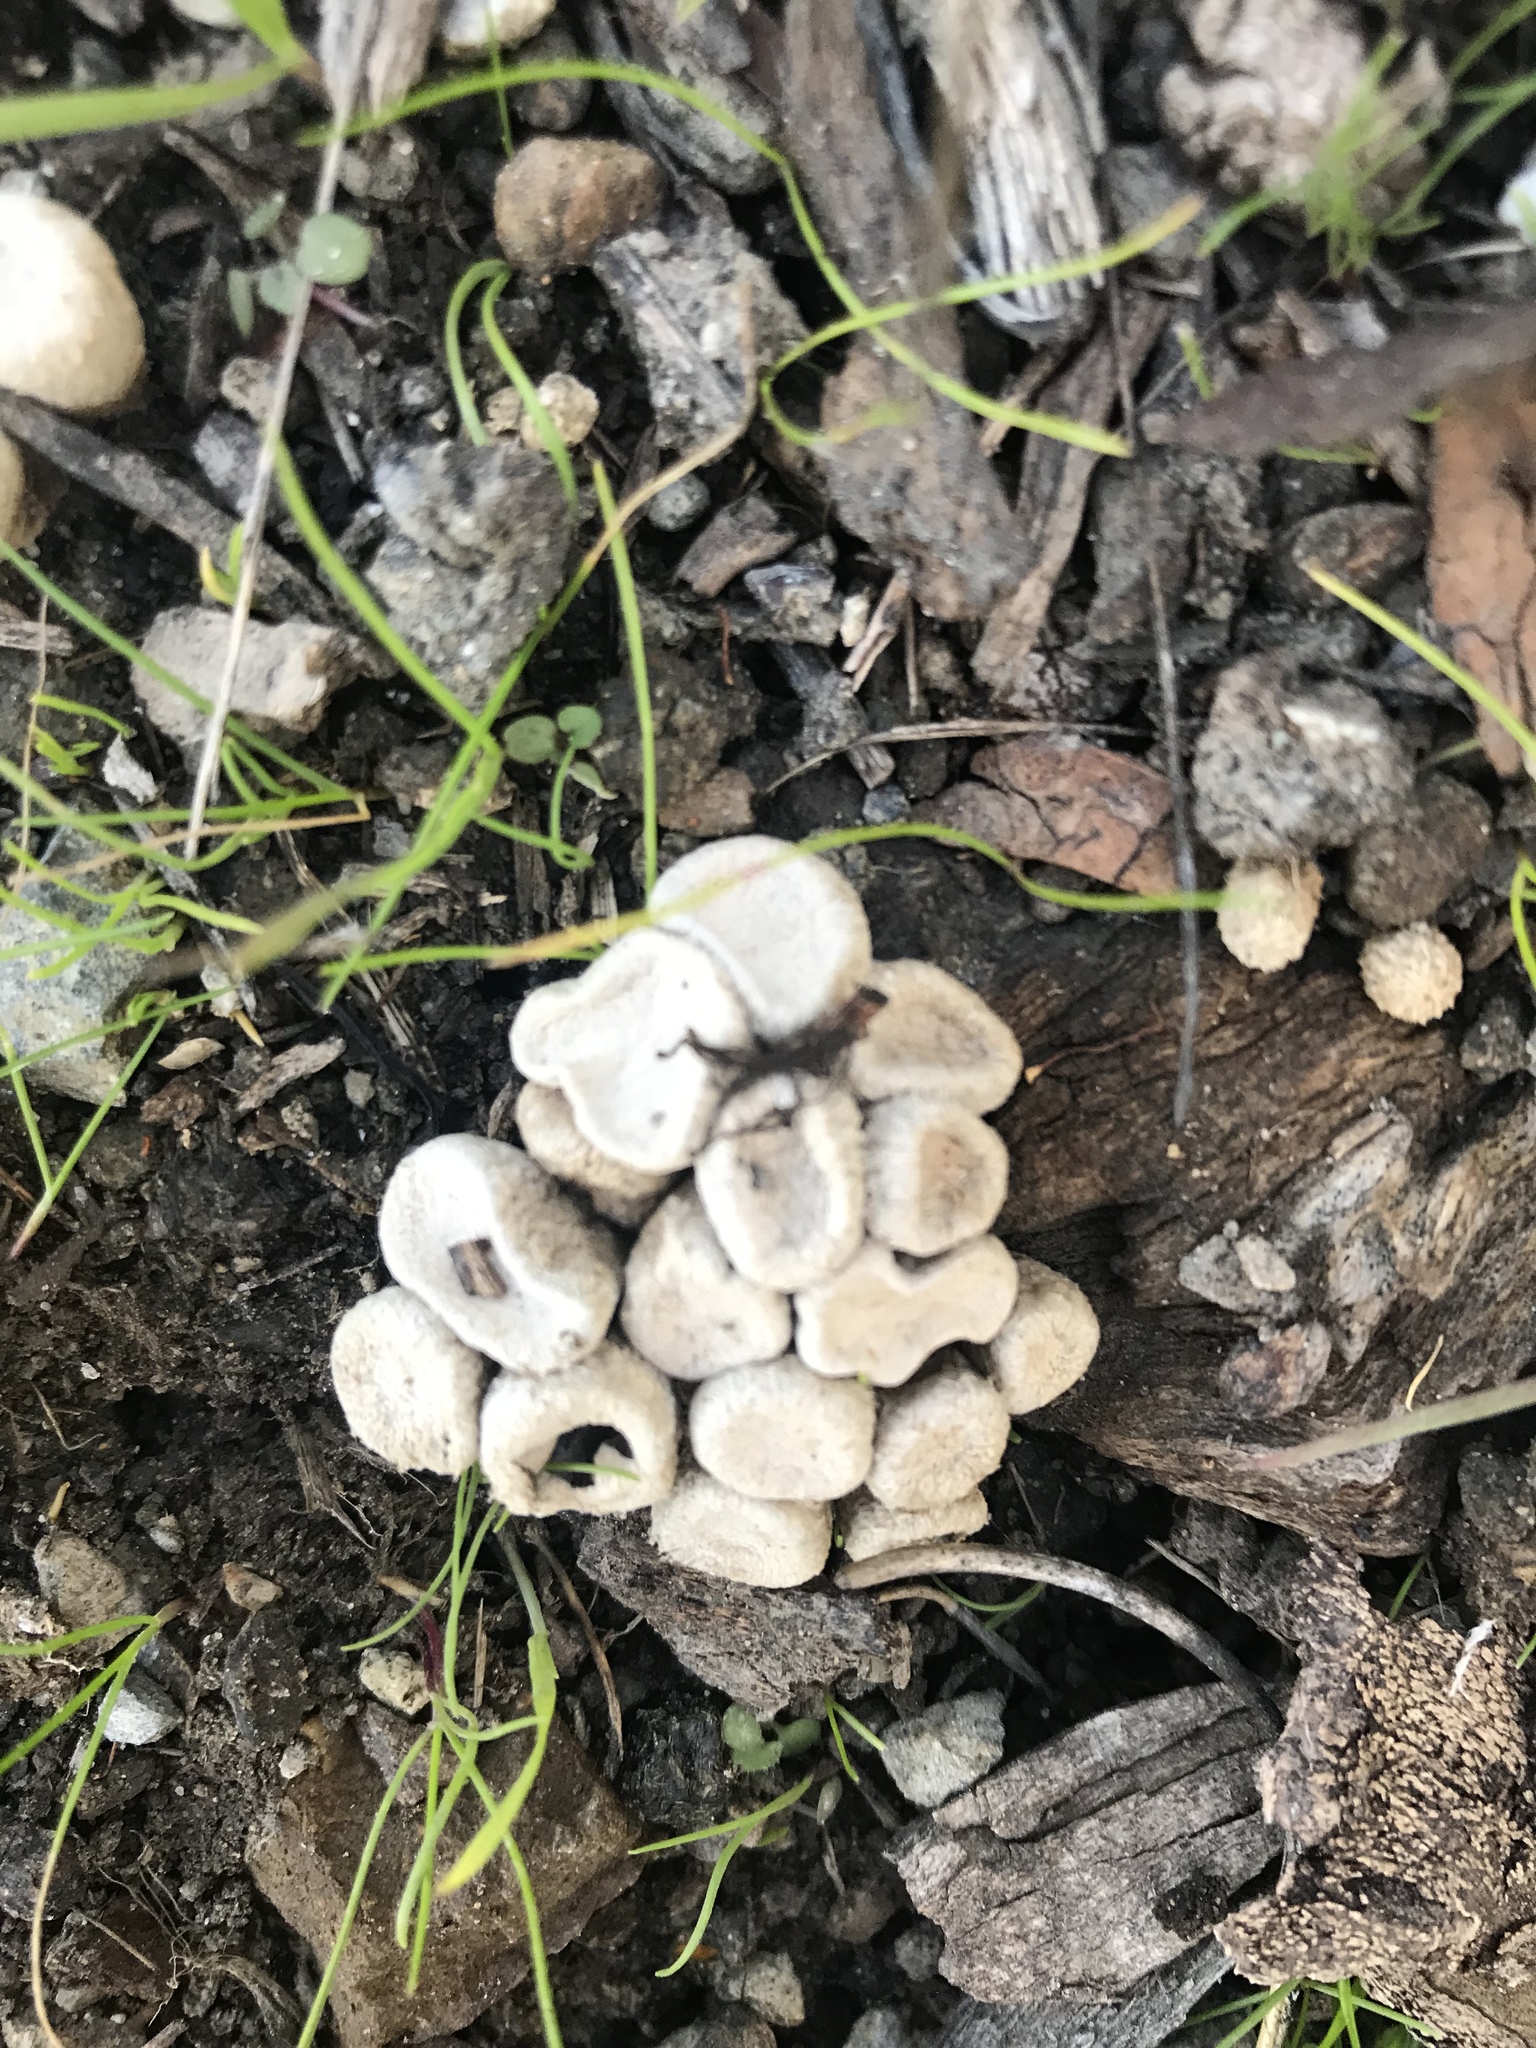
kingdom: Fungi
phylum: Basidiomycota
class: Agaricomycetes
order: Agaricales
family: Agaricaceae
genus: Cyathus
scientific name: Cyathus olla
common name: Field bird's nest
